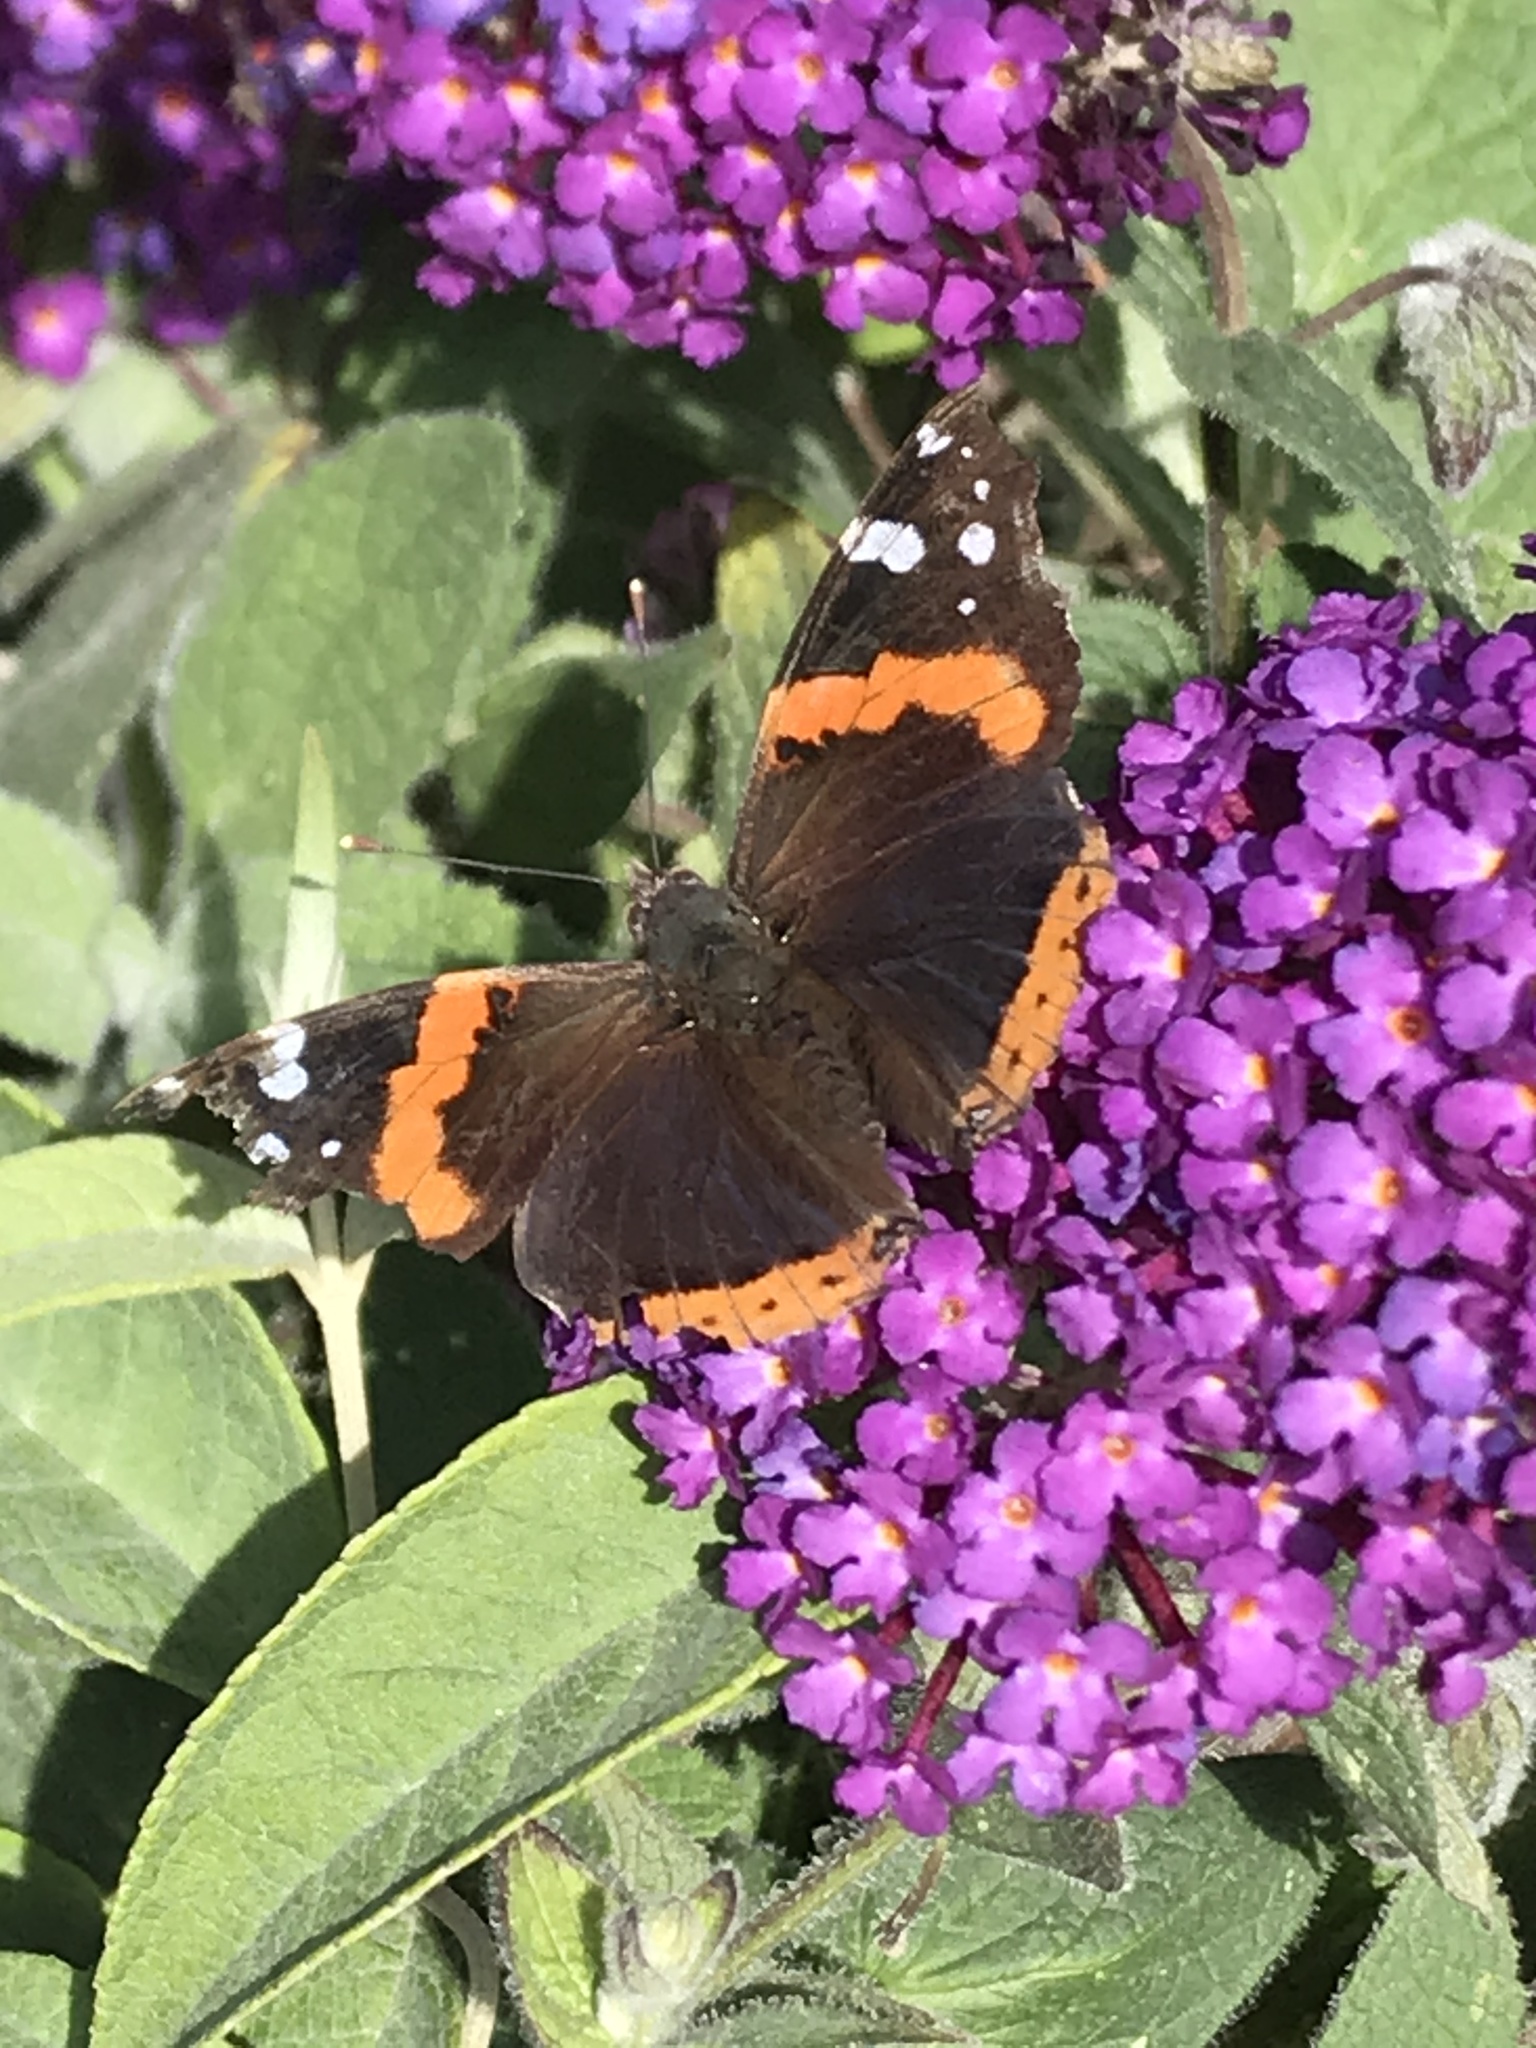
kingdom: Animalia
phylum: Arthropoda
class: Insecta
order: Lepidoptera
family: Nymphalidae
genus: Vanessa
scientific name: Vanessa atalanta
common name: Red admiral
